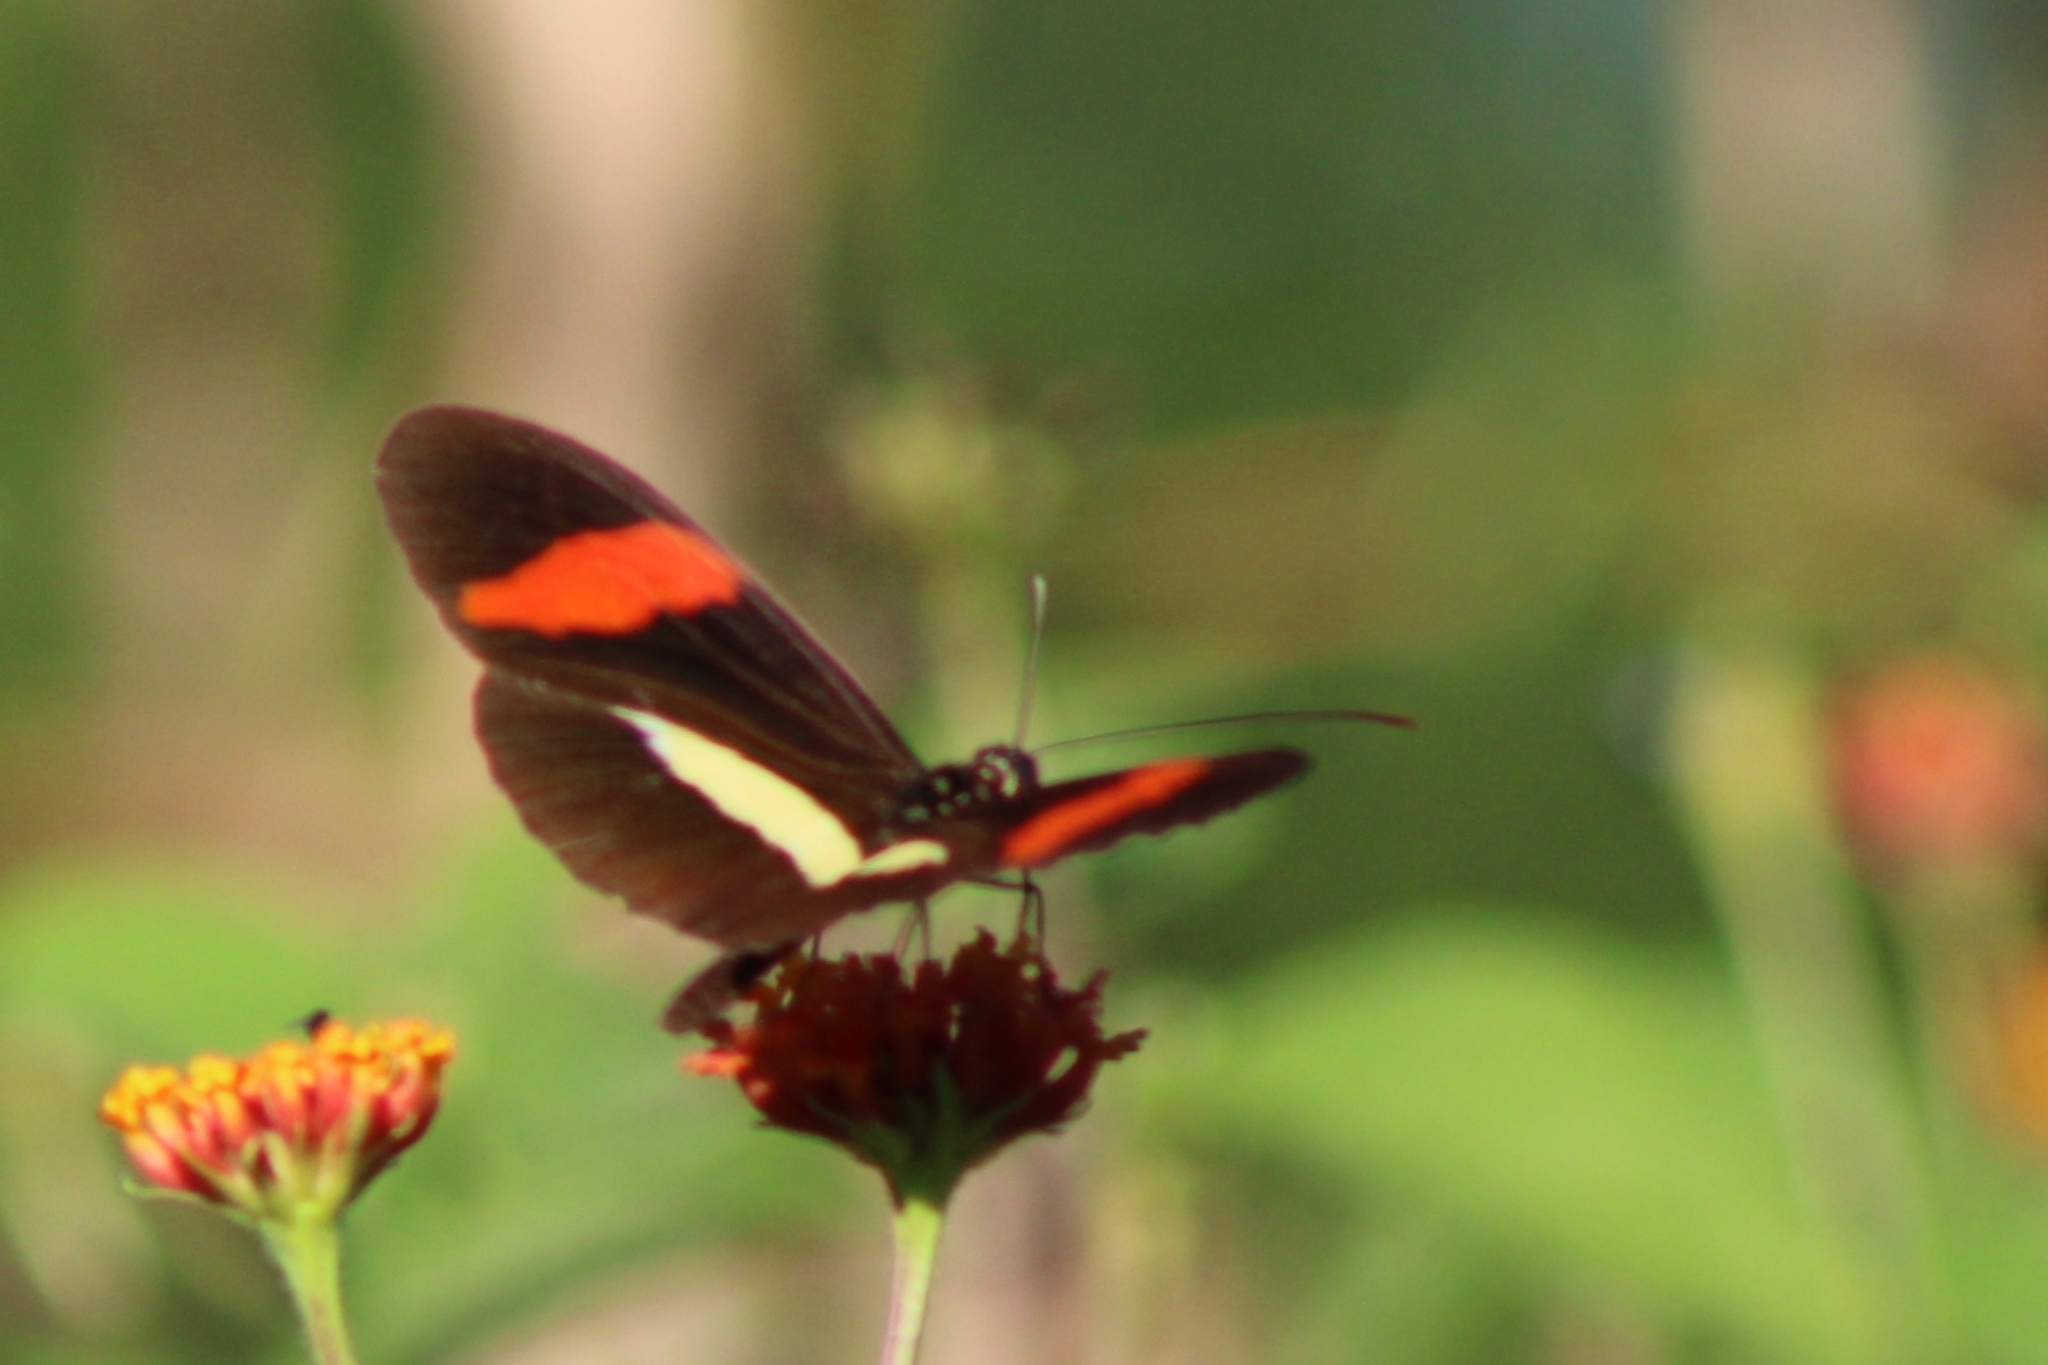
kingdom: Animalia
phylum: Arthropoda
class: Insecta
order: Lepidoptera
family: Nymphalidae
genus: Tirumala
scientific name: Tirumala petiverana
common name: Blue monarch
